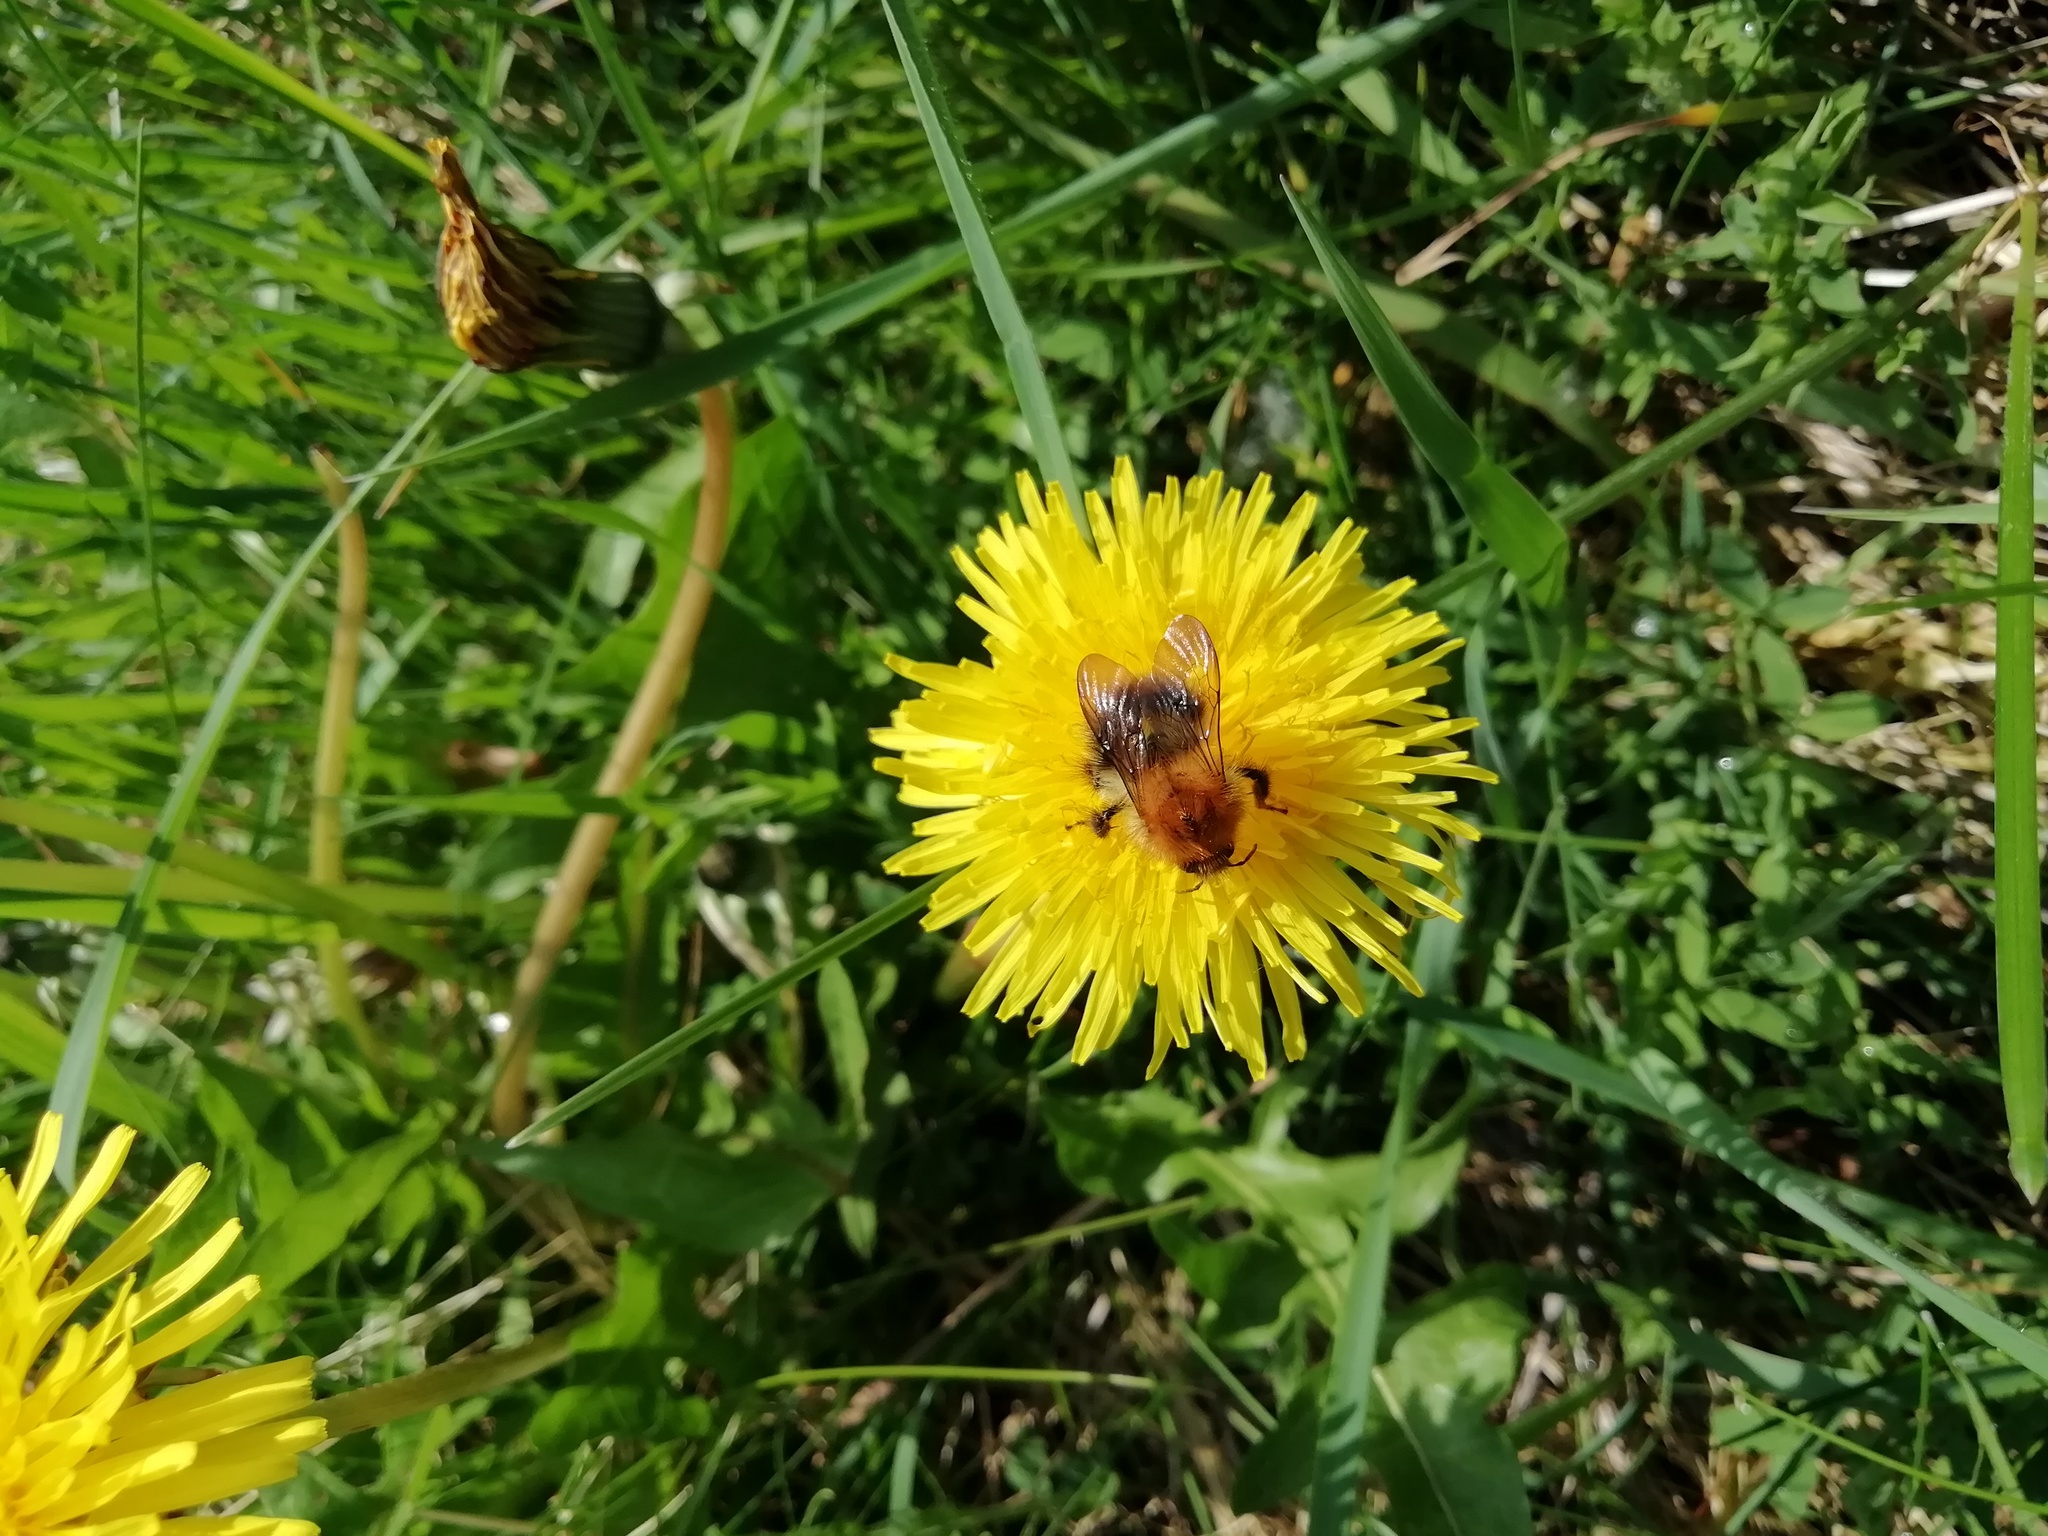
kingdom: Animalia
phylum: Arthropoda
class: Insecta
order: Hymenoptera
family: Apidae
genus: Bombus
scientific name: Bombus pascuorum
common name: Common carder bee
